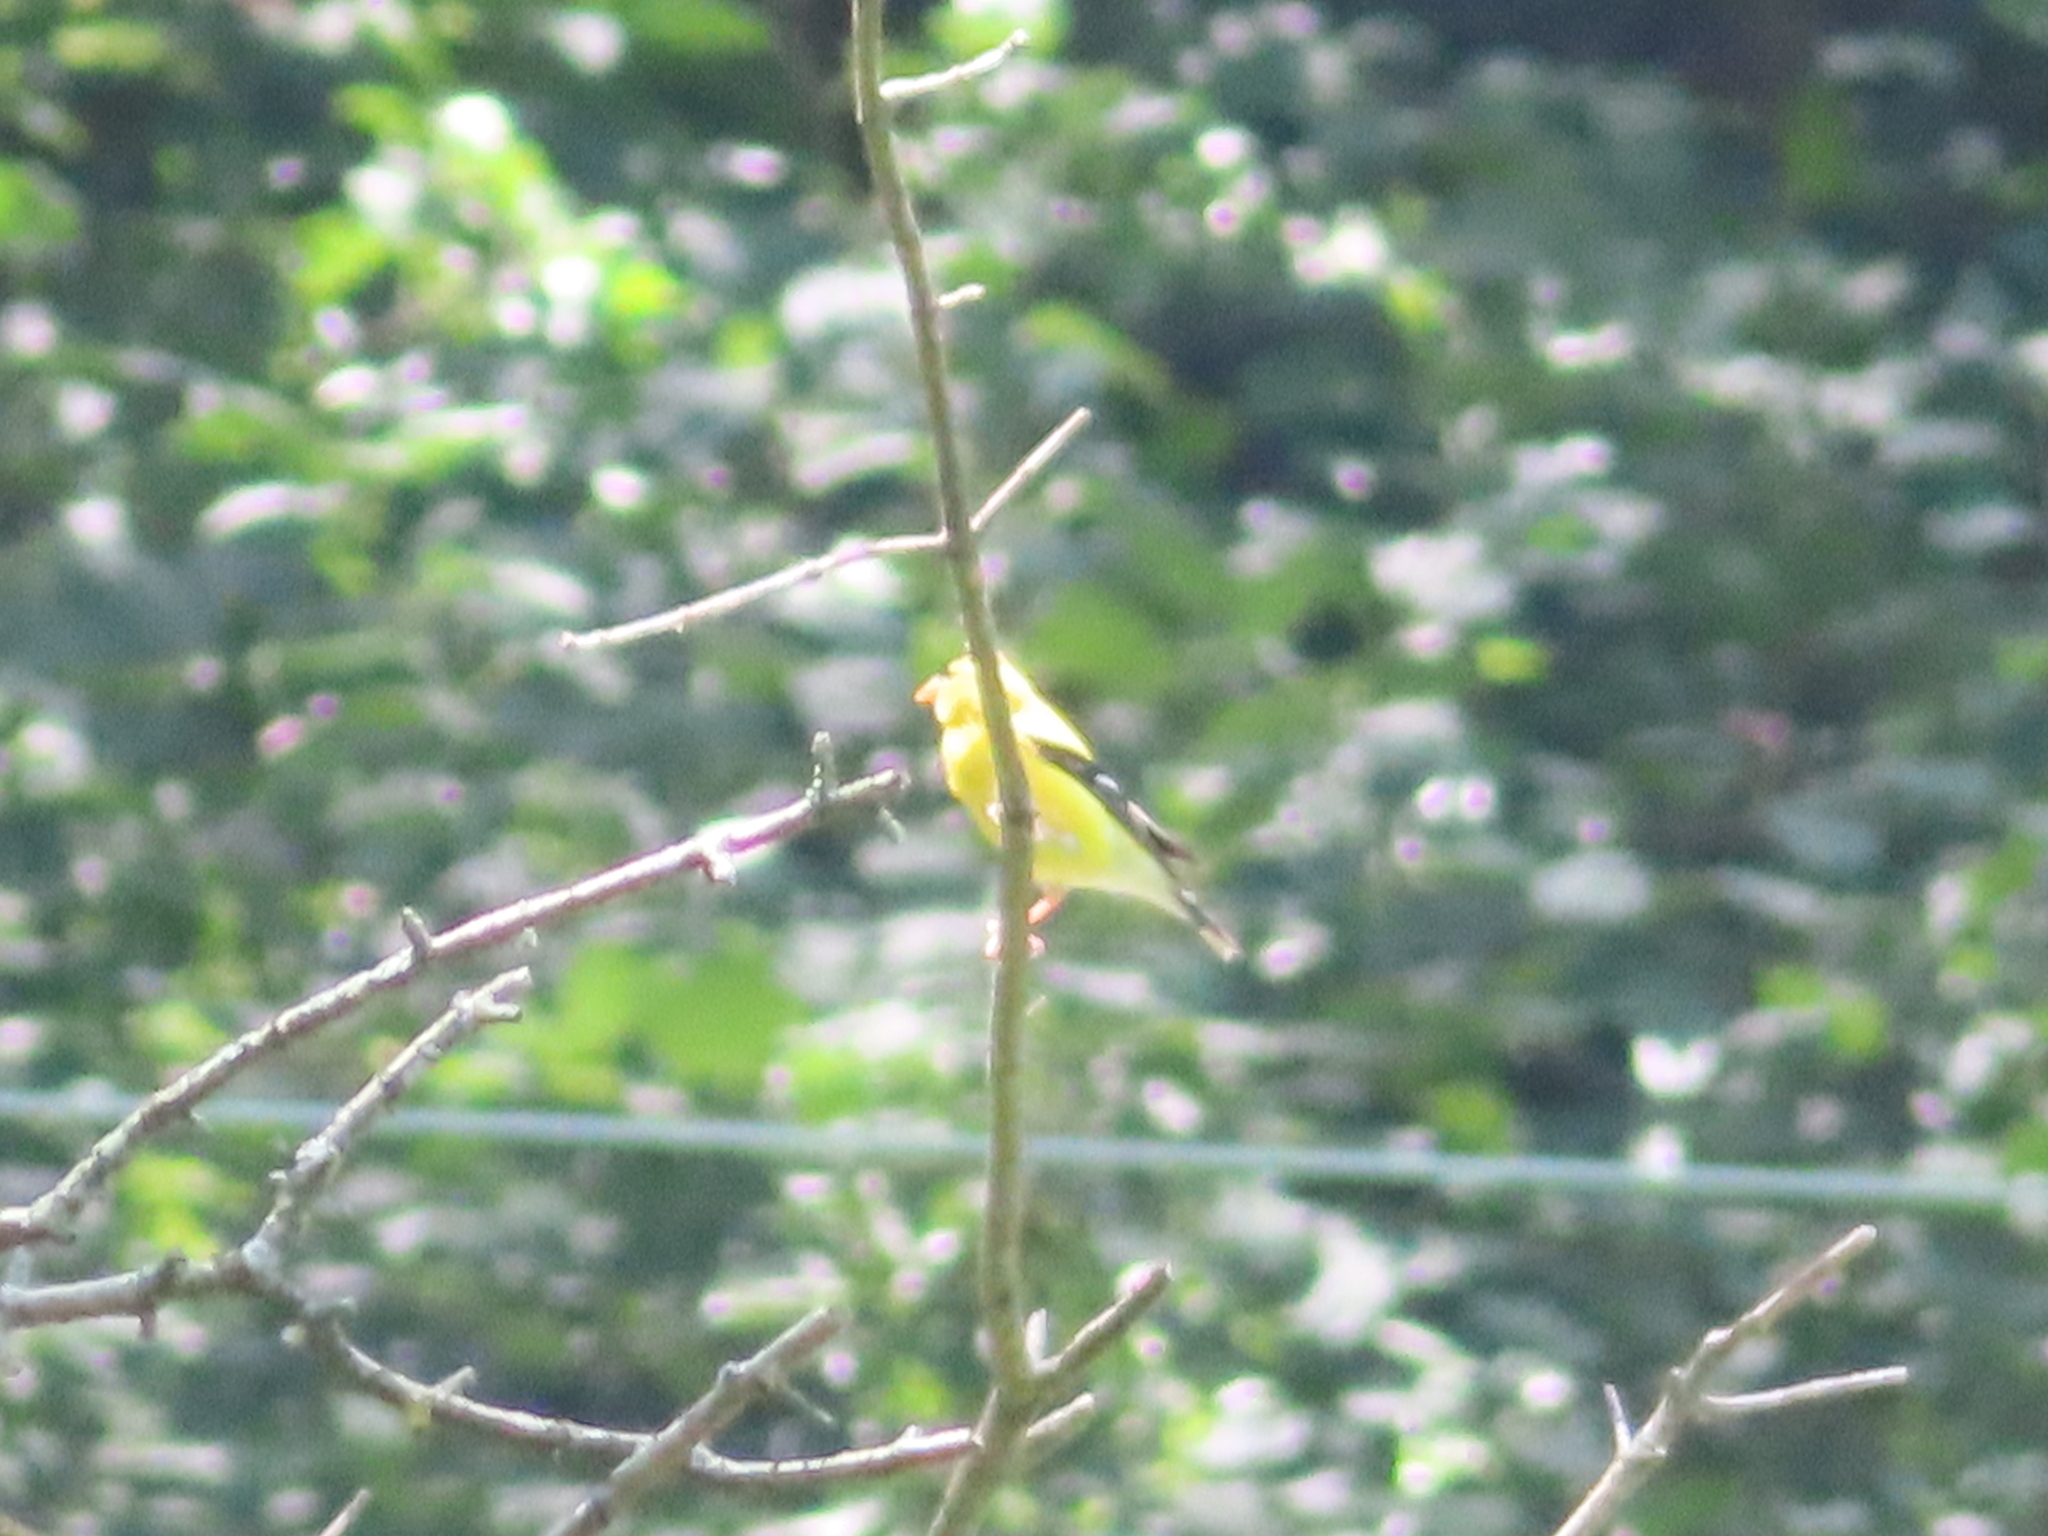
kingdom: Animalia
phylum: Chordata
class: Aves
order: Passeriformes
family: Fringillidae
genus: Spinus
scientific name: Spinus tristis
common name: American goldfinch
